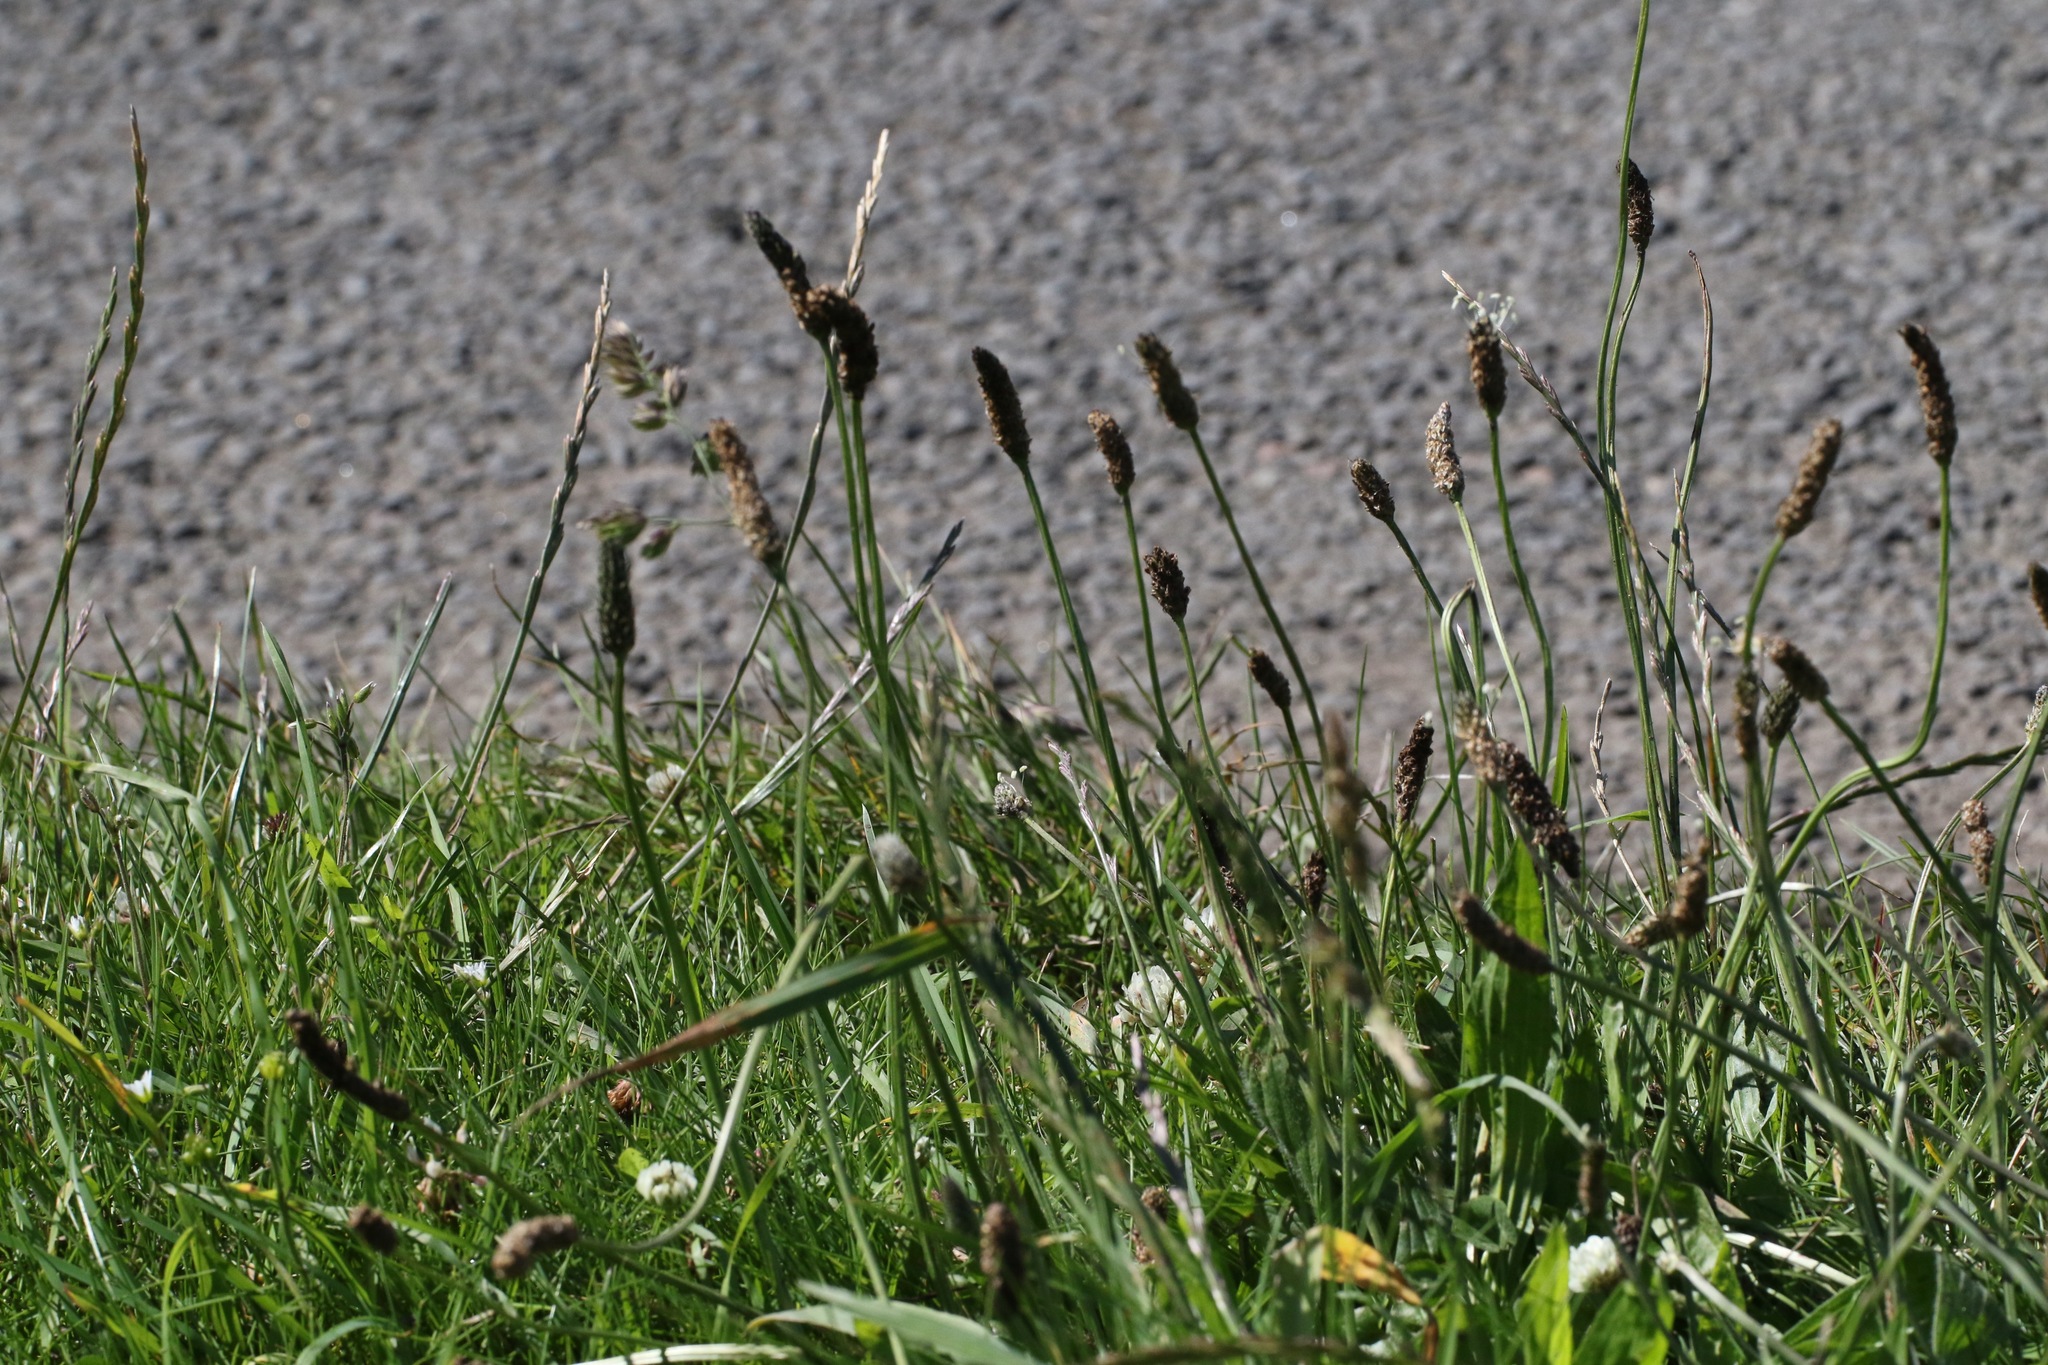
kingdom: Plantae
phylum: Tracheophyta
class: Magnoliopsida
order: Lamiales
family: Plantaginaceae
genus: Plantago
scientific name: Plantago lanceolata
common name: Ribwort plantain
